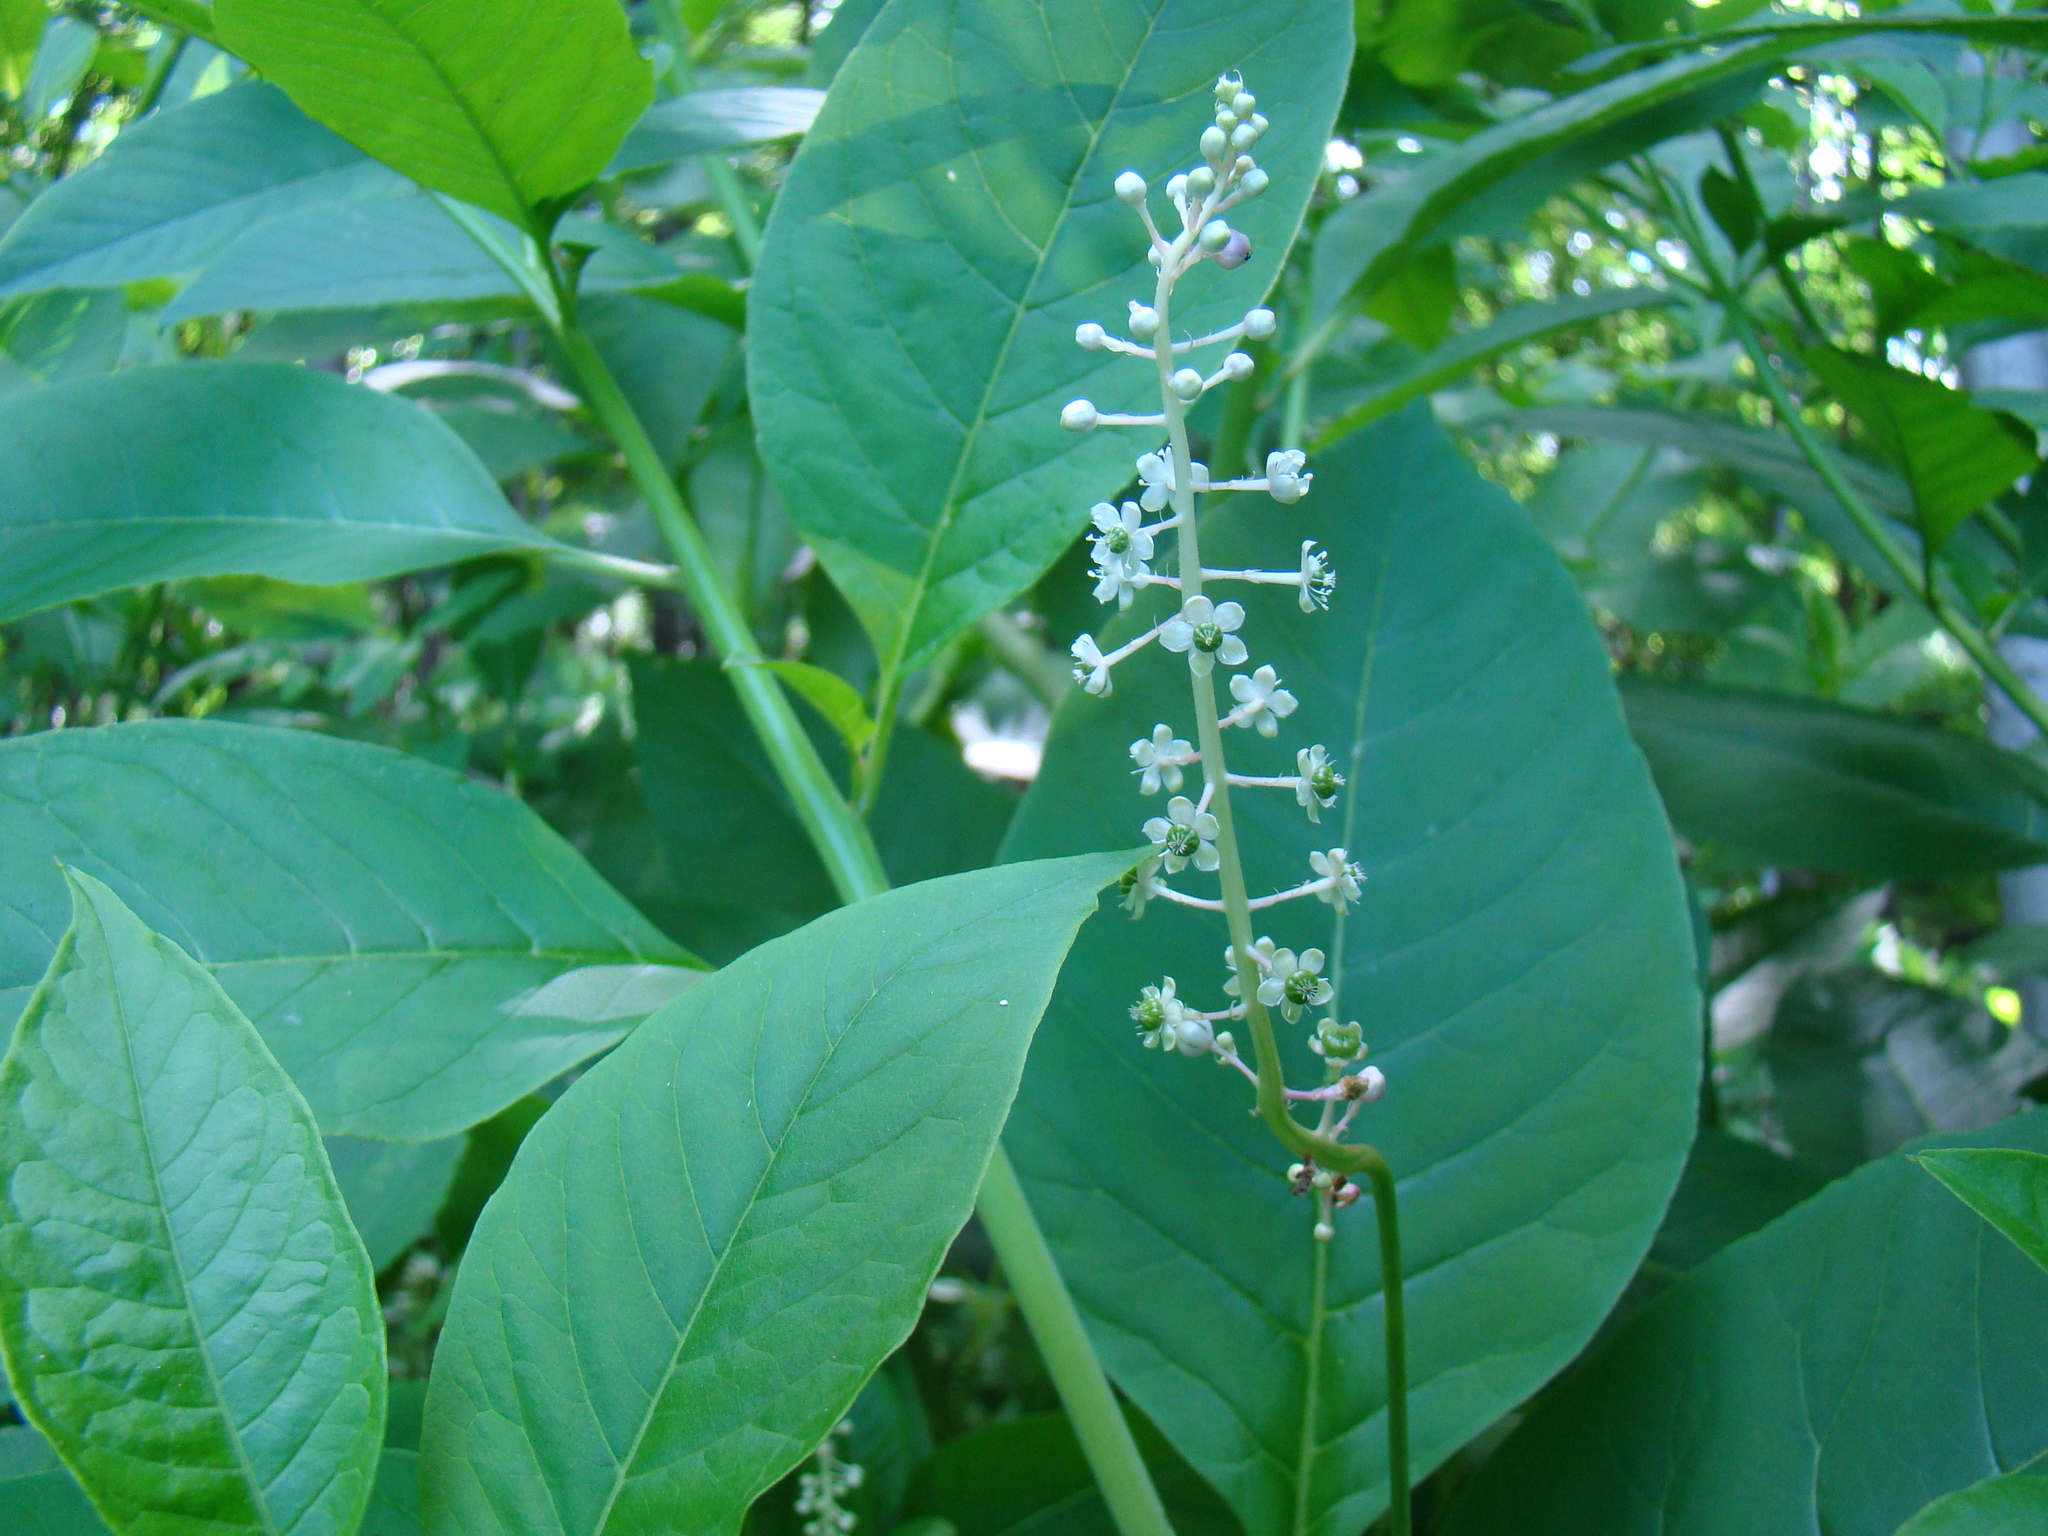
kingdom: Plantae
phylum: Tracheophyta
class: Magnoliopsida
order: Caryophyllales
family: Phytolaccaceae
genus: Phytolacca
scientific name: Phytolacca americana
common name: American pokeweed
